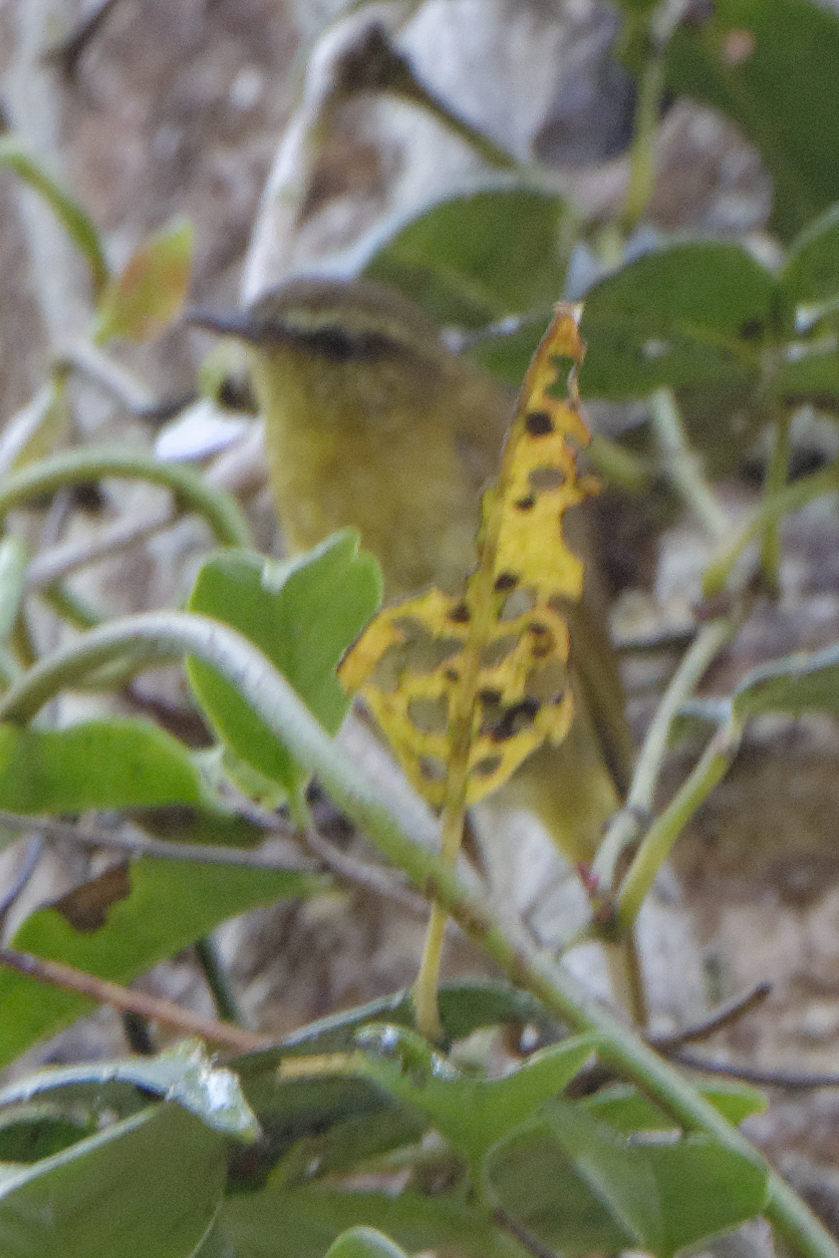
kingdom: Animalia
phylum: Chordata
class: Aves
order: Passeriformes
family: Phylloscopidae
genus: Phylloscopus
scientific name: Phylloscopus sarasinorum
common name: Sulawesi leaf warbler
